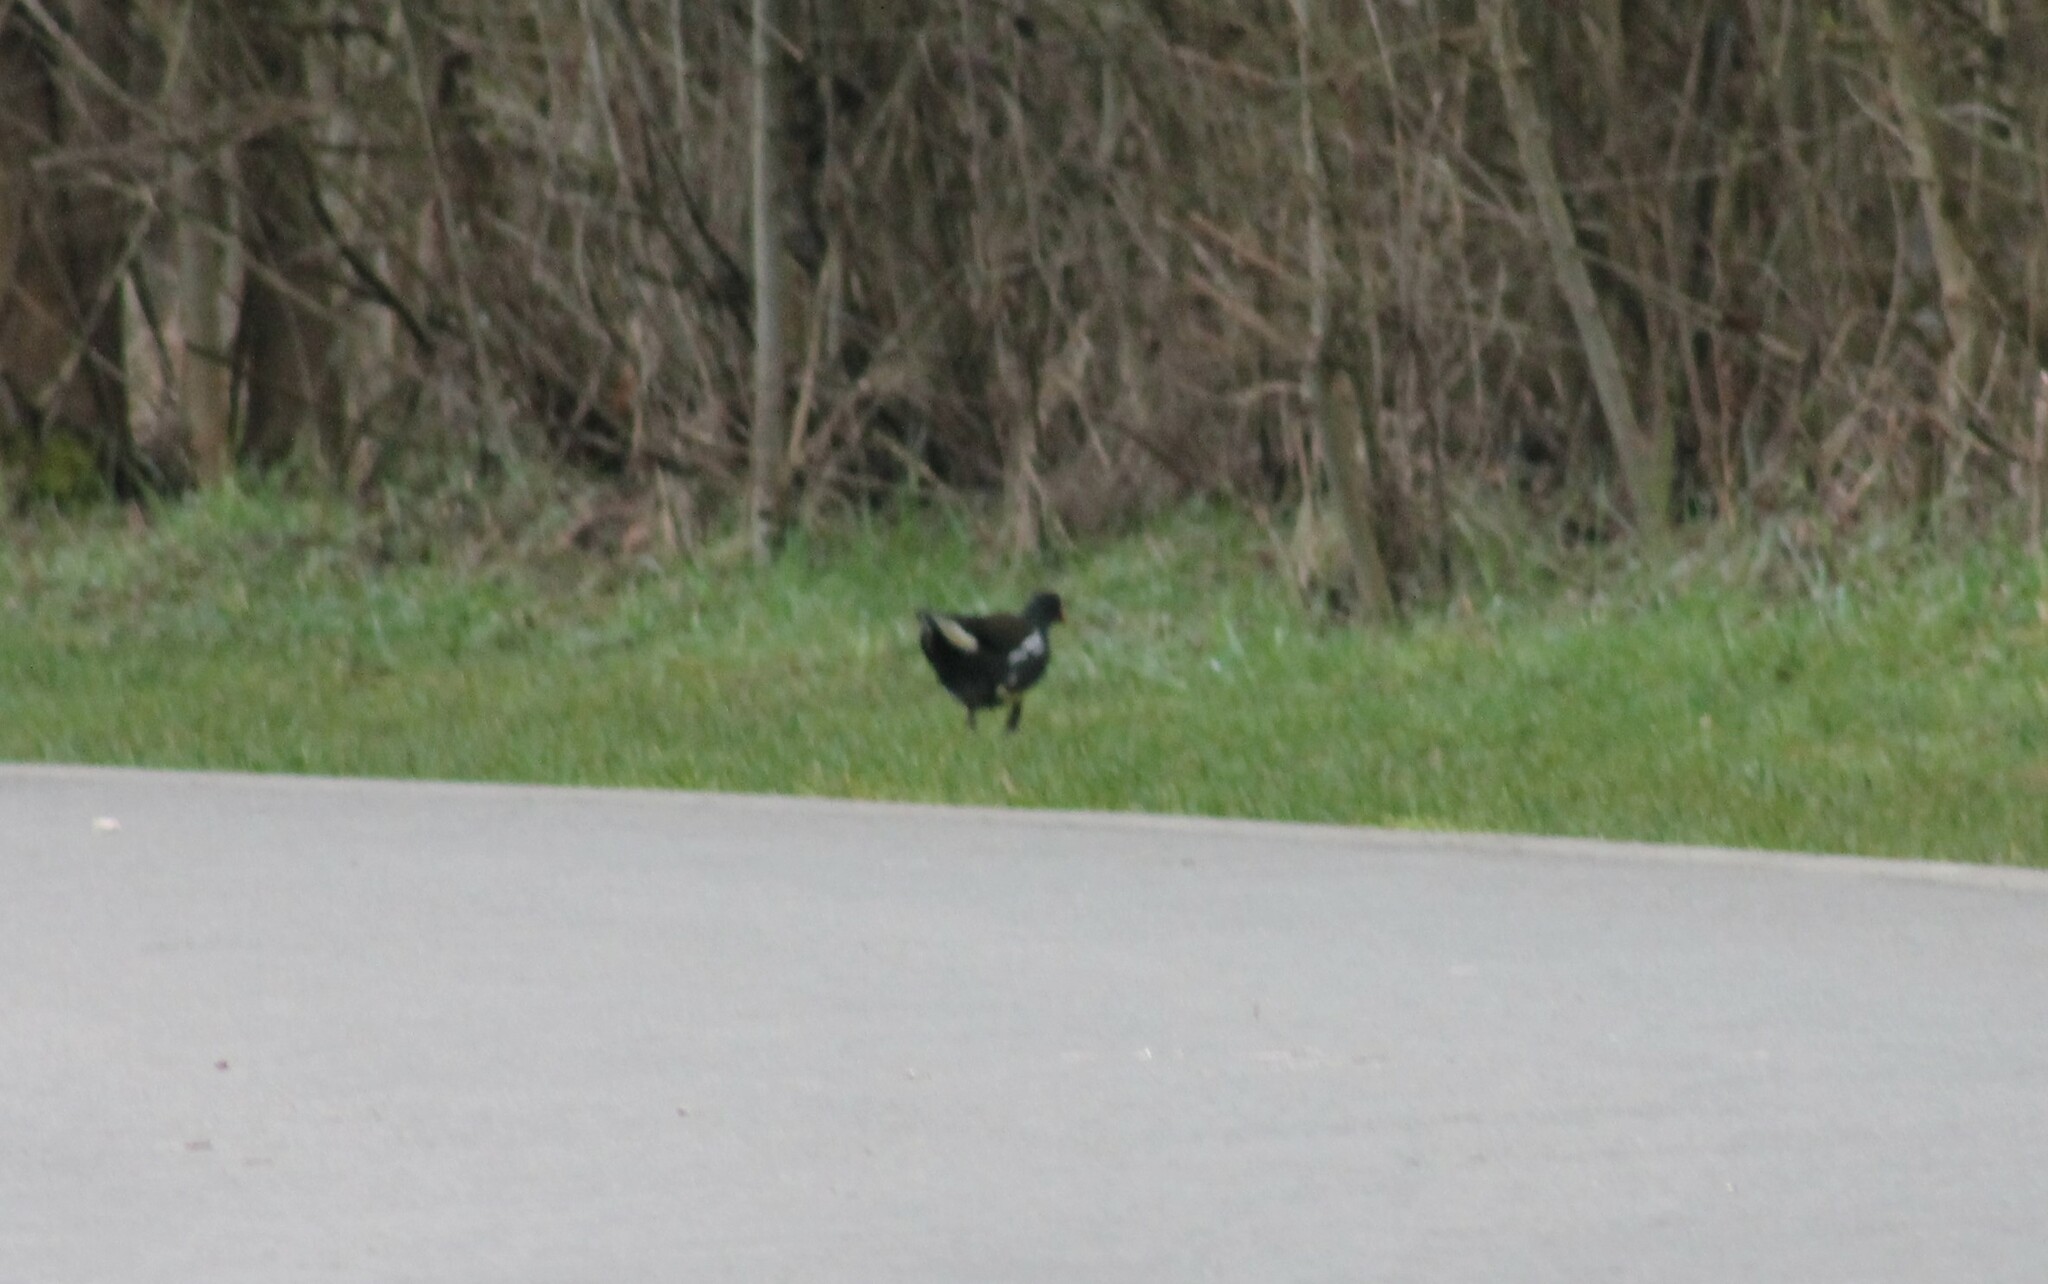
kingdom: Animalia
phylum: Chordata
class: Aves
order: Gruiformes
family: Rallidae
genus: Gallinula
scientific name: Gallinula chloropus
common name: Common moorhen
